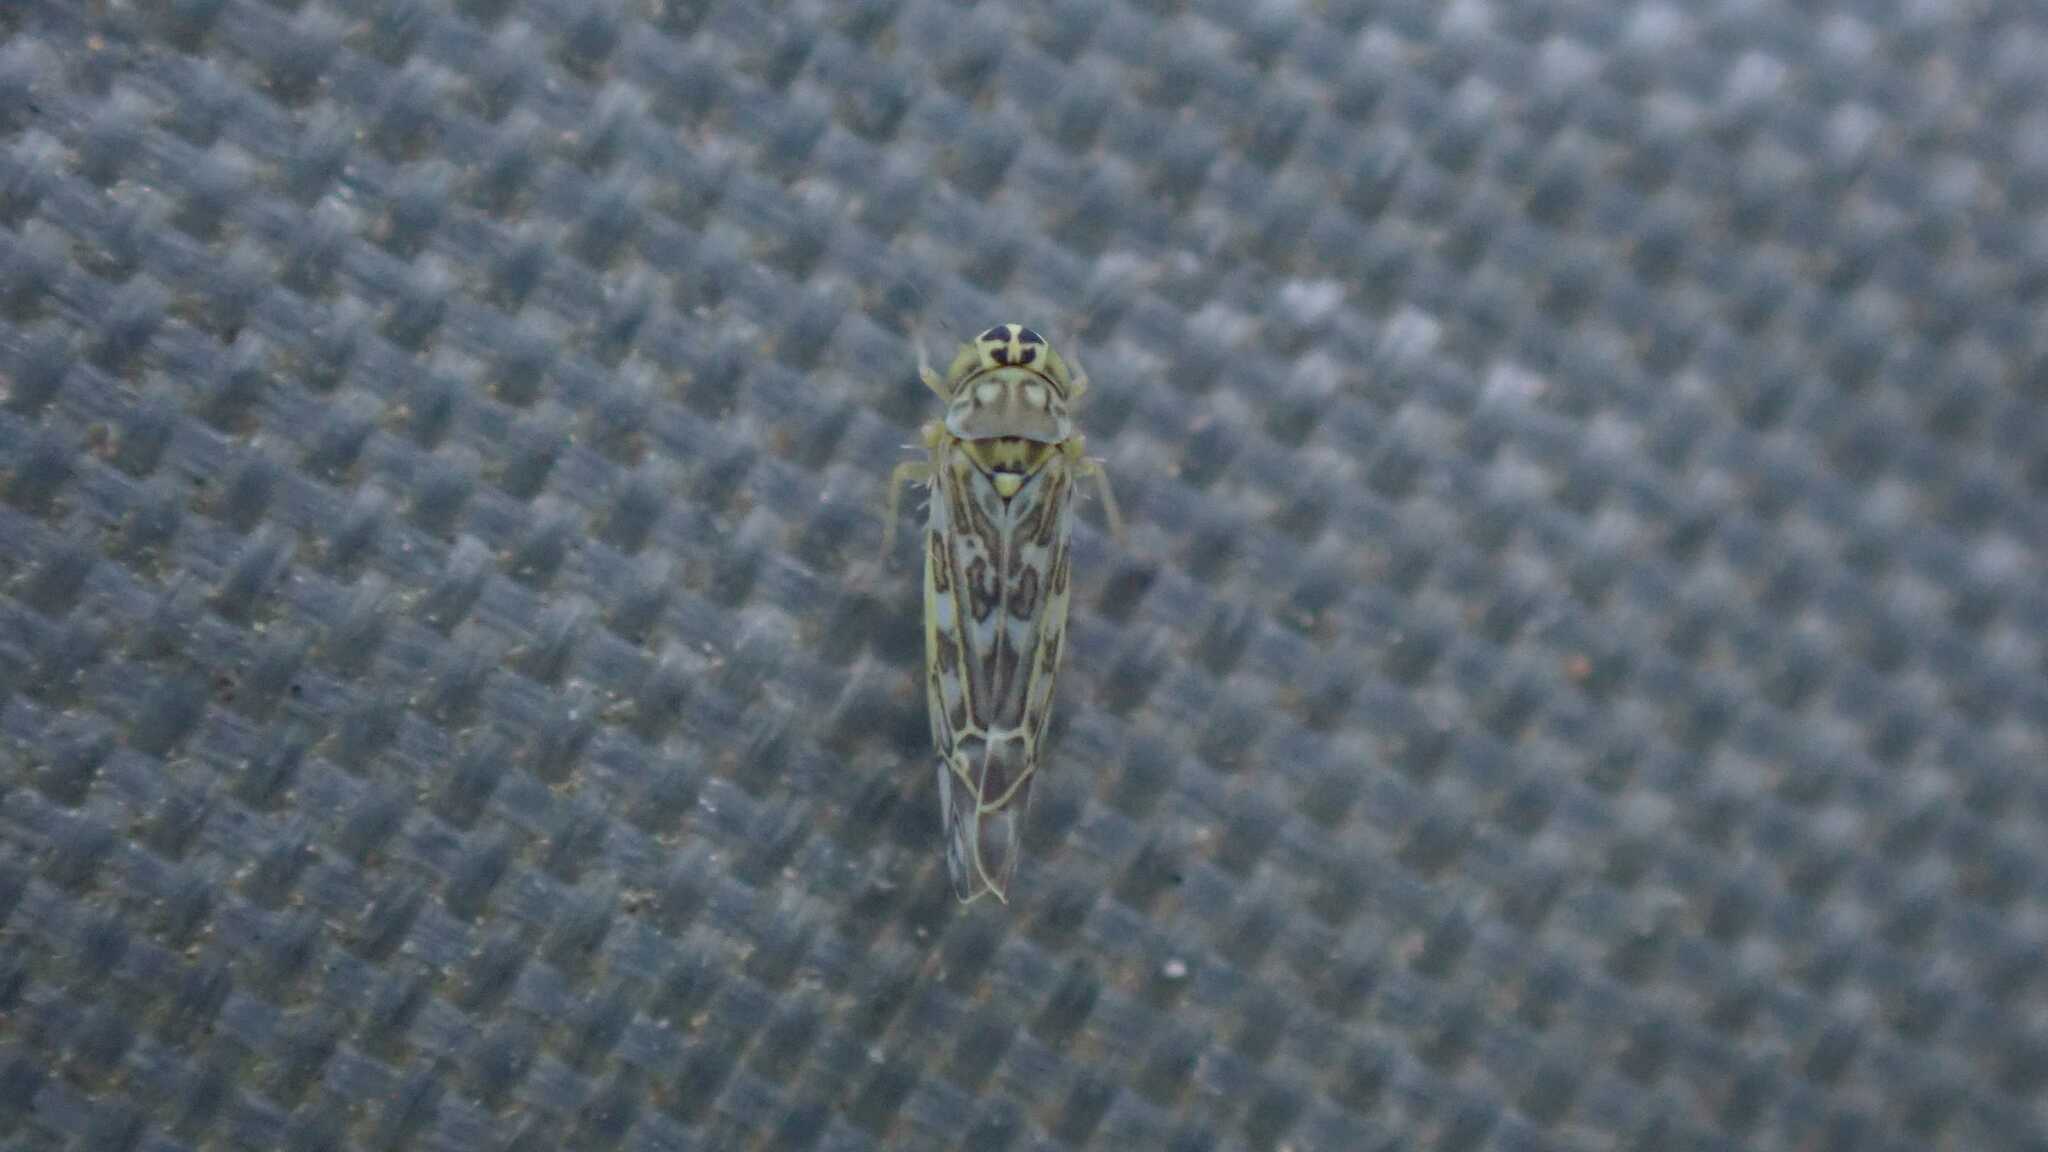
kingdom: Animalia
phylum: Arthropoda
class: Insecta
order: Hemiptera
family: Cicadellidae
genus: Eupteryx
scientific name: Eupteryx decemnotata
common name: Ligurian leafhopper
